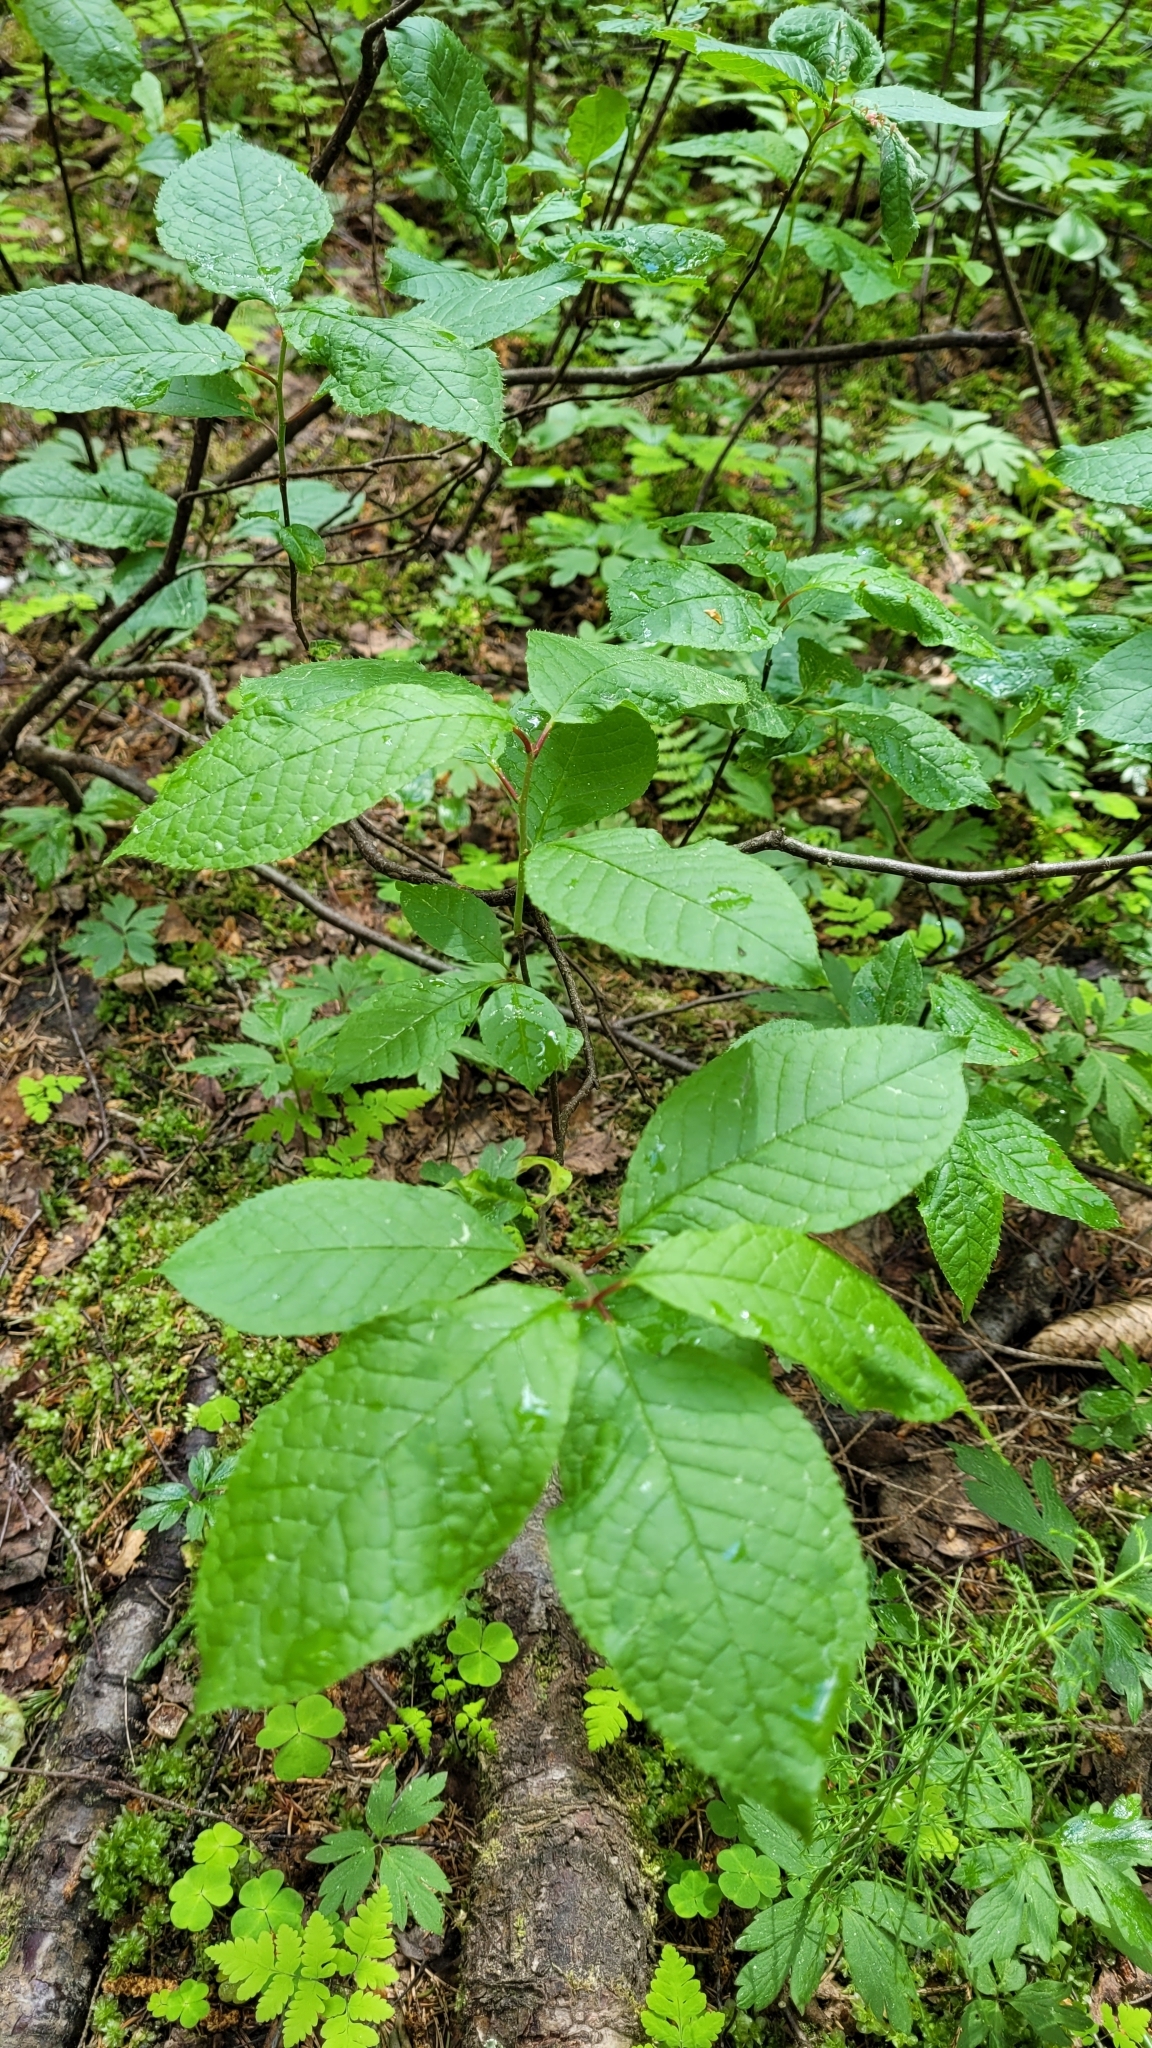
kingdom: Plantae
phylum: Tracheophyta
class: Magnoliopsida
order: Rosales
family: Rosaceae
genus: Prunus
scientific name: Prunus padus
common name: Bird cherry
